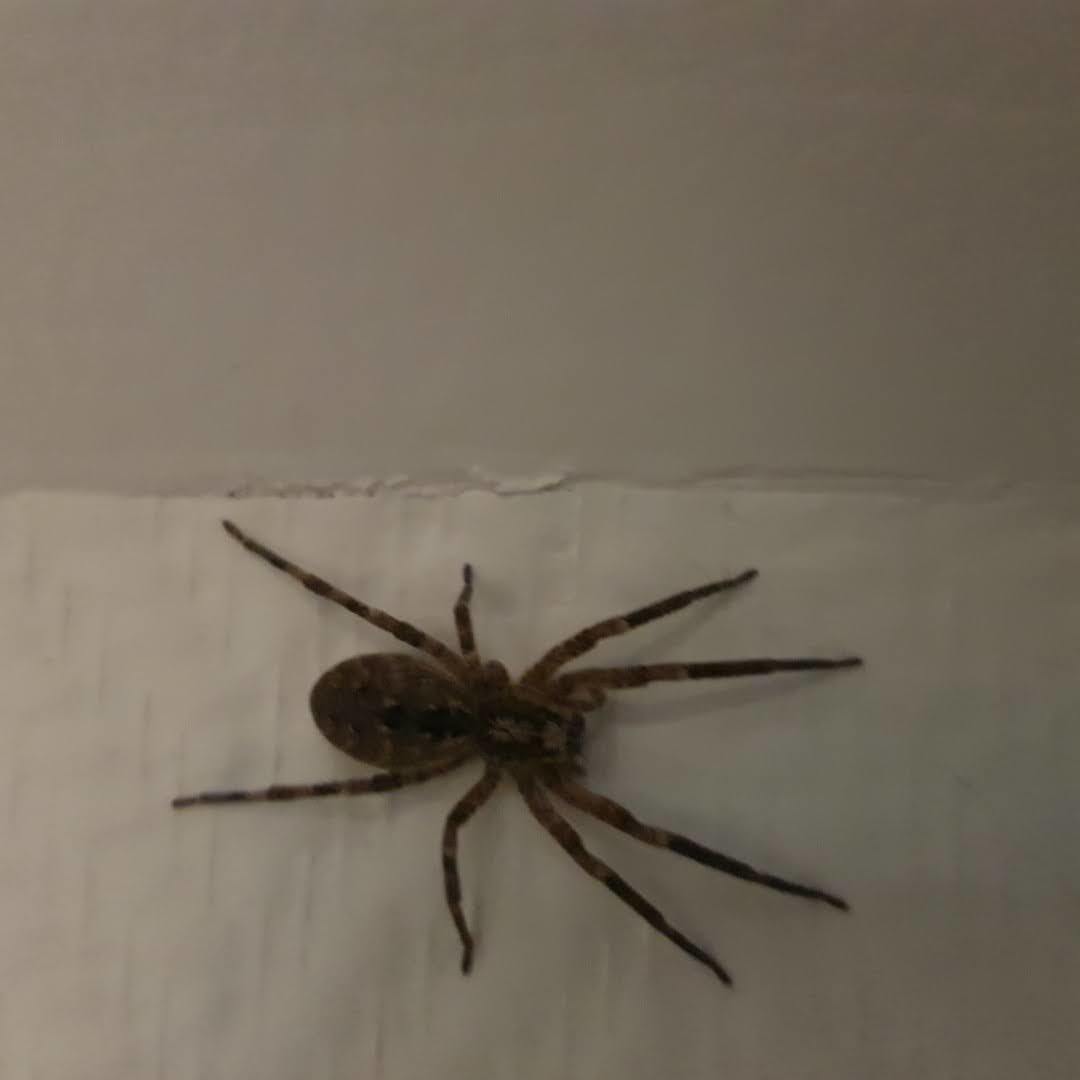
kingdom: Animalia
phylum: Arthropoda
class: Arachnida
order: Araneae
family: Zoropsidae
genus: Zoropsis
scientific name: Zoropsis spinimana
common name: Zoropsid spider
